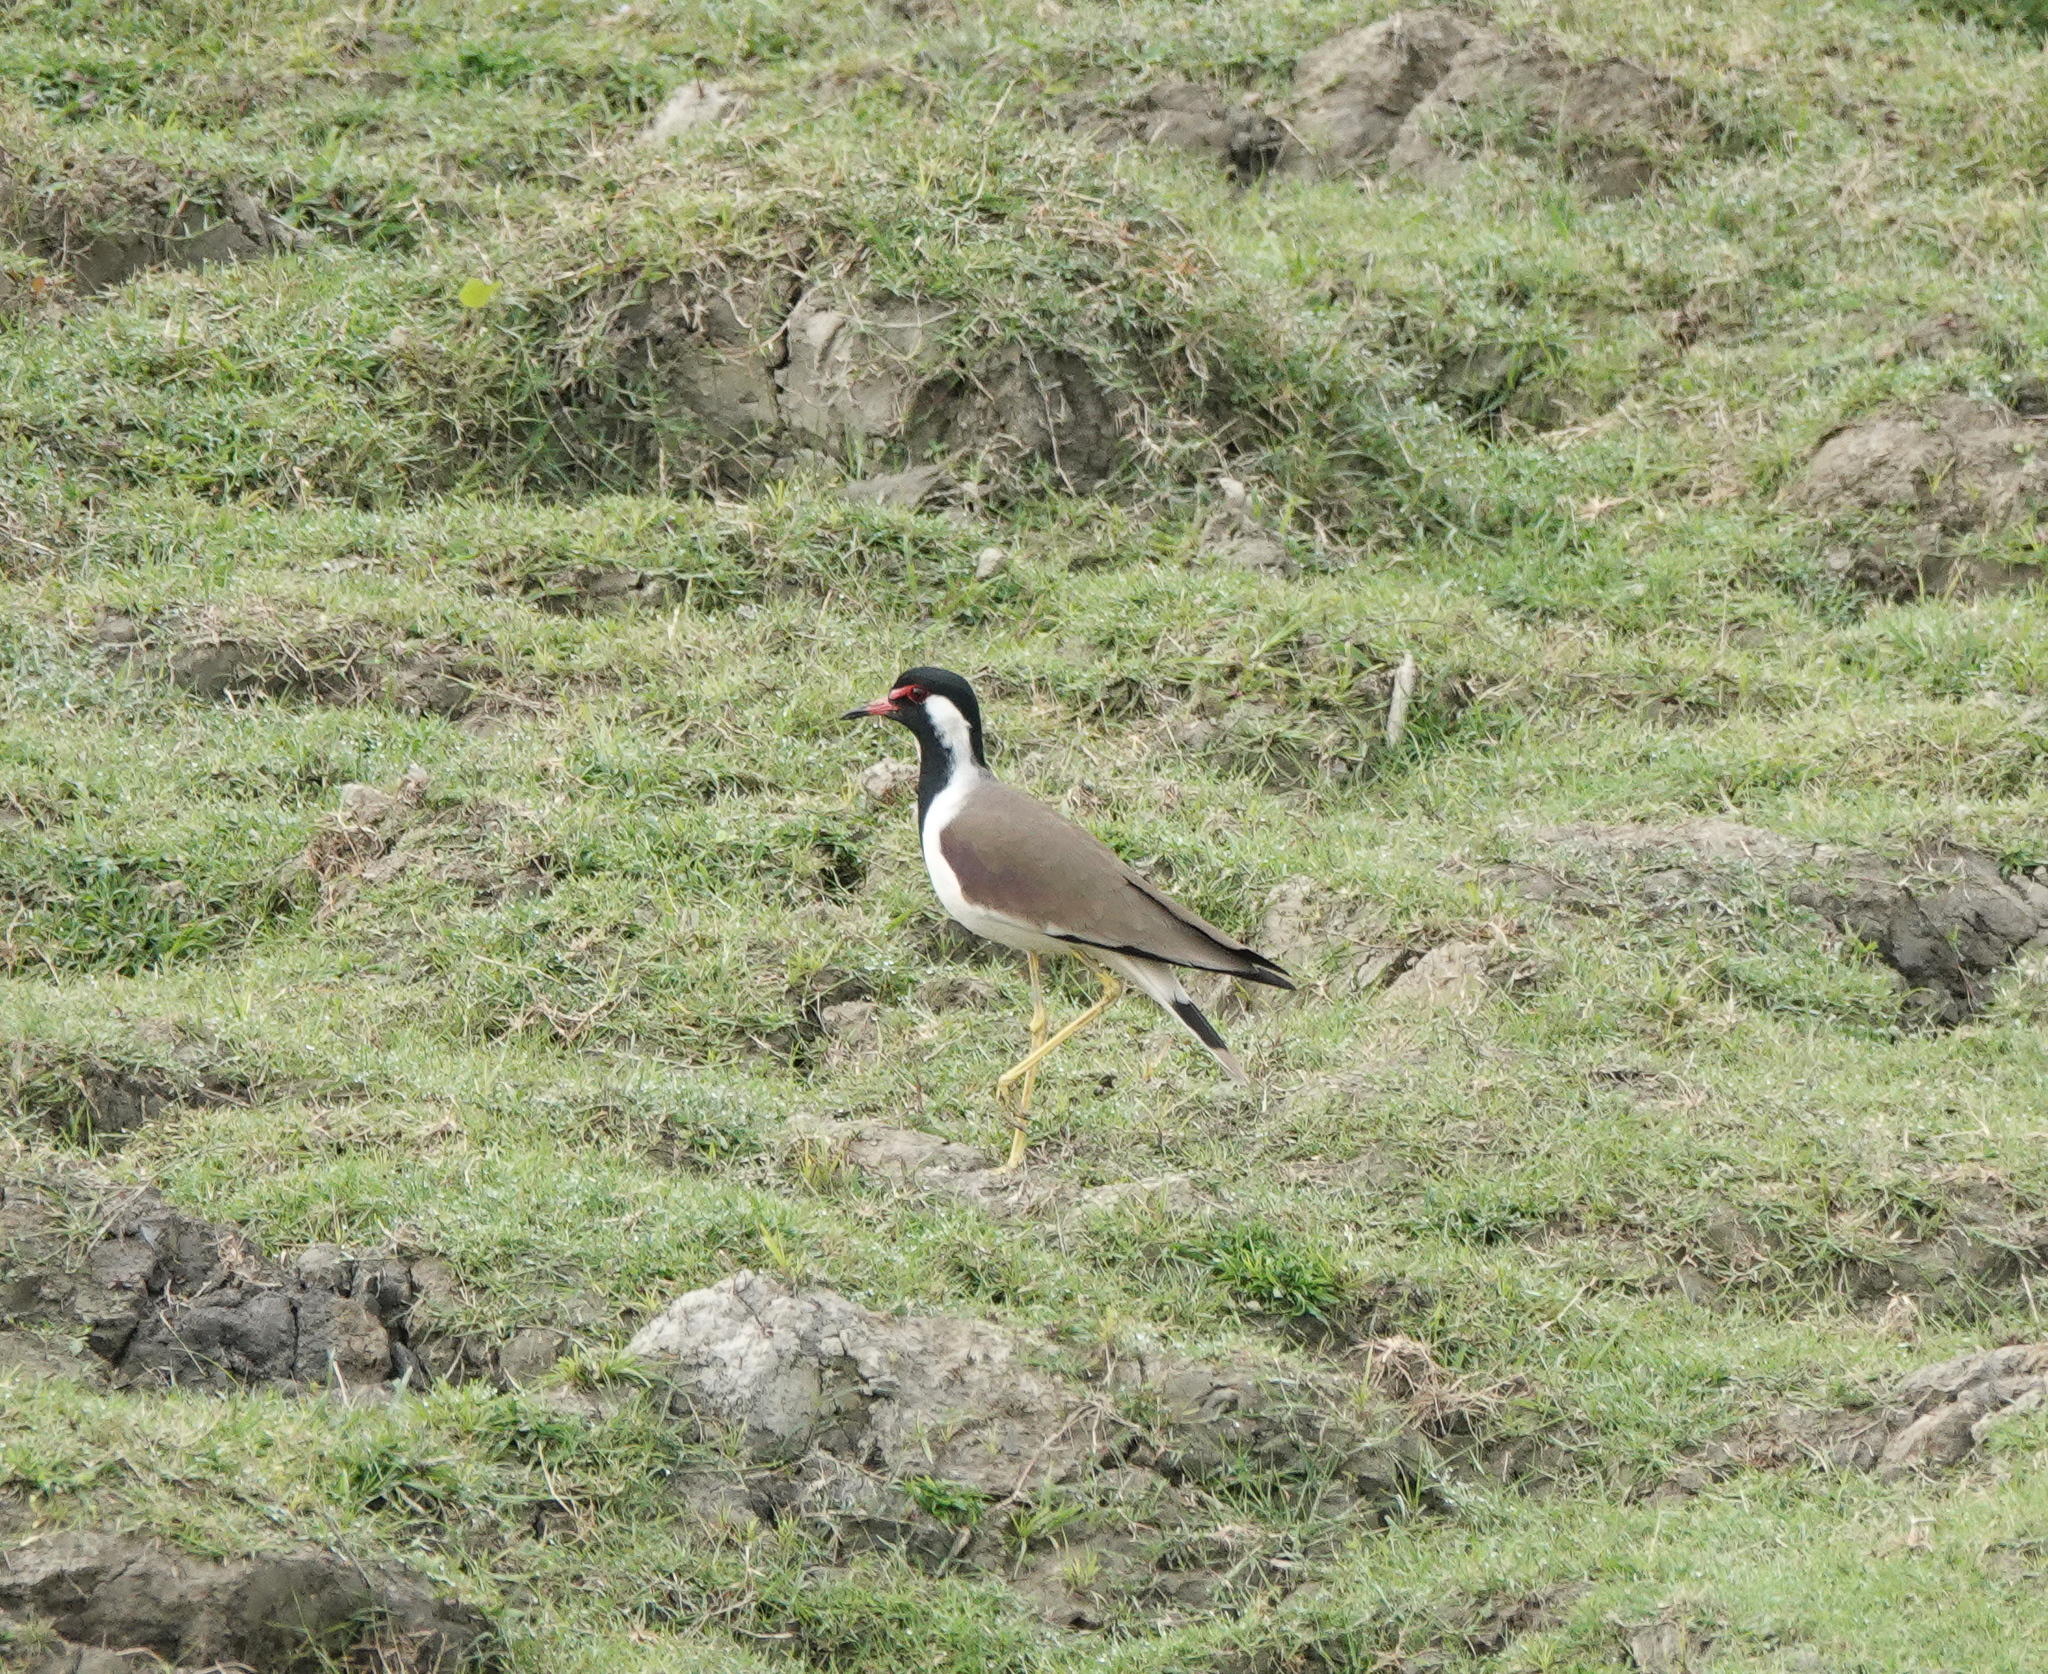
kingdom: Animalia
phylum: Chordata
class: Aves
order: Charadriiformes
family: Charadriidae
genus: Vanellus
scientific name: Vanellus indicus
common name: Red-wattled lapwing
